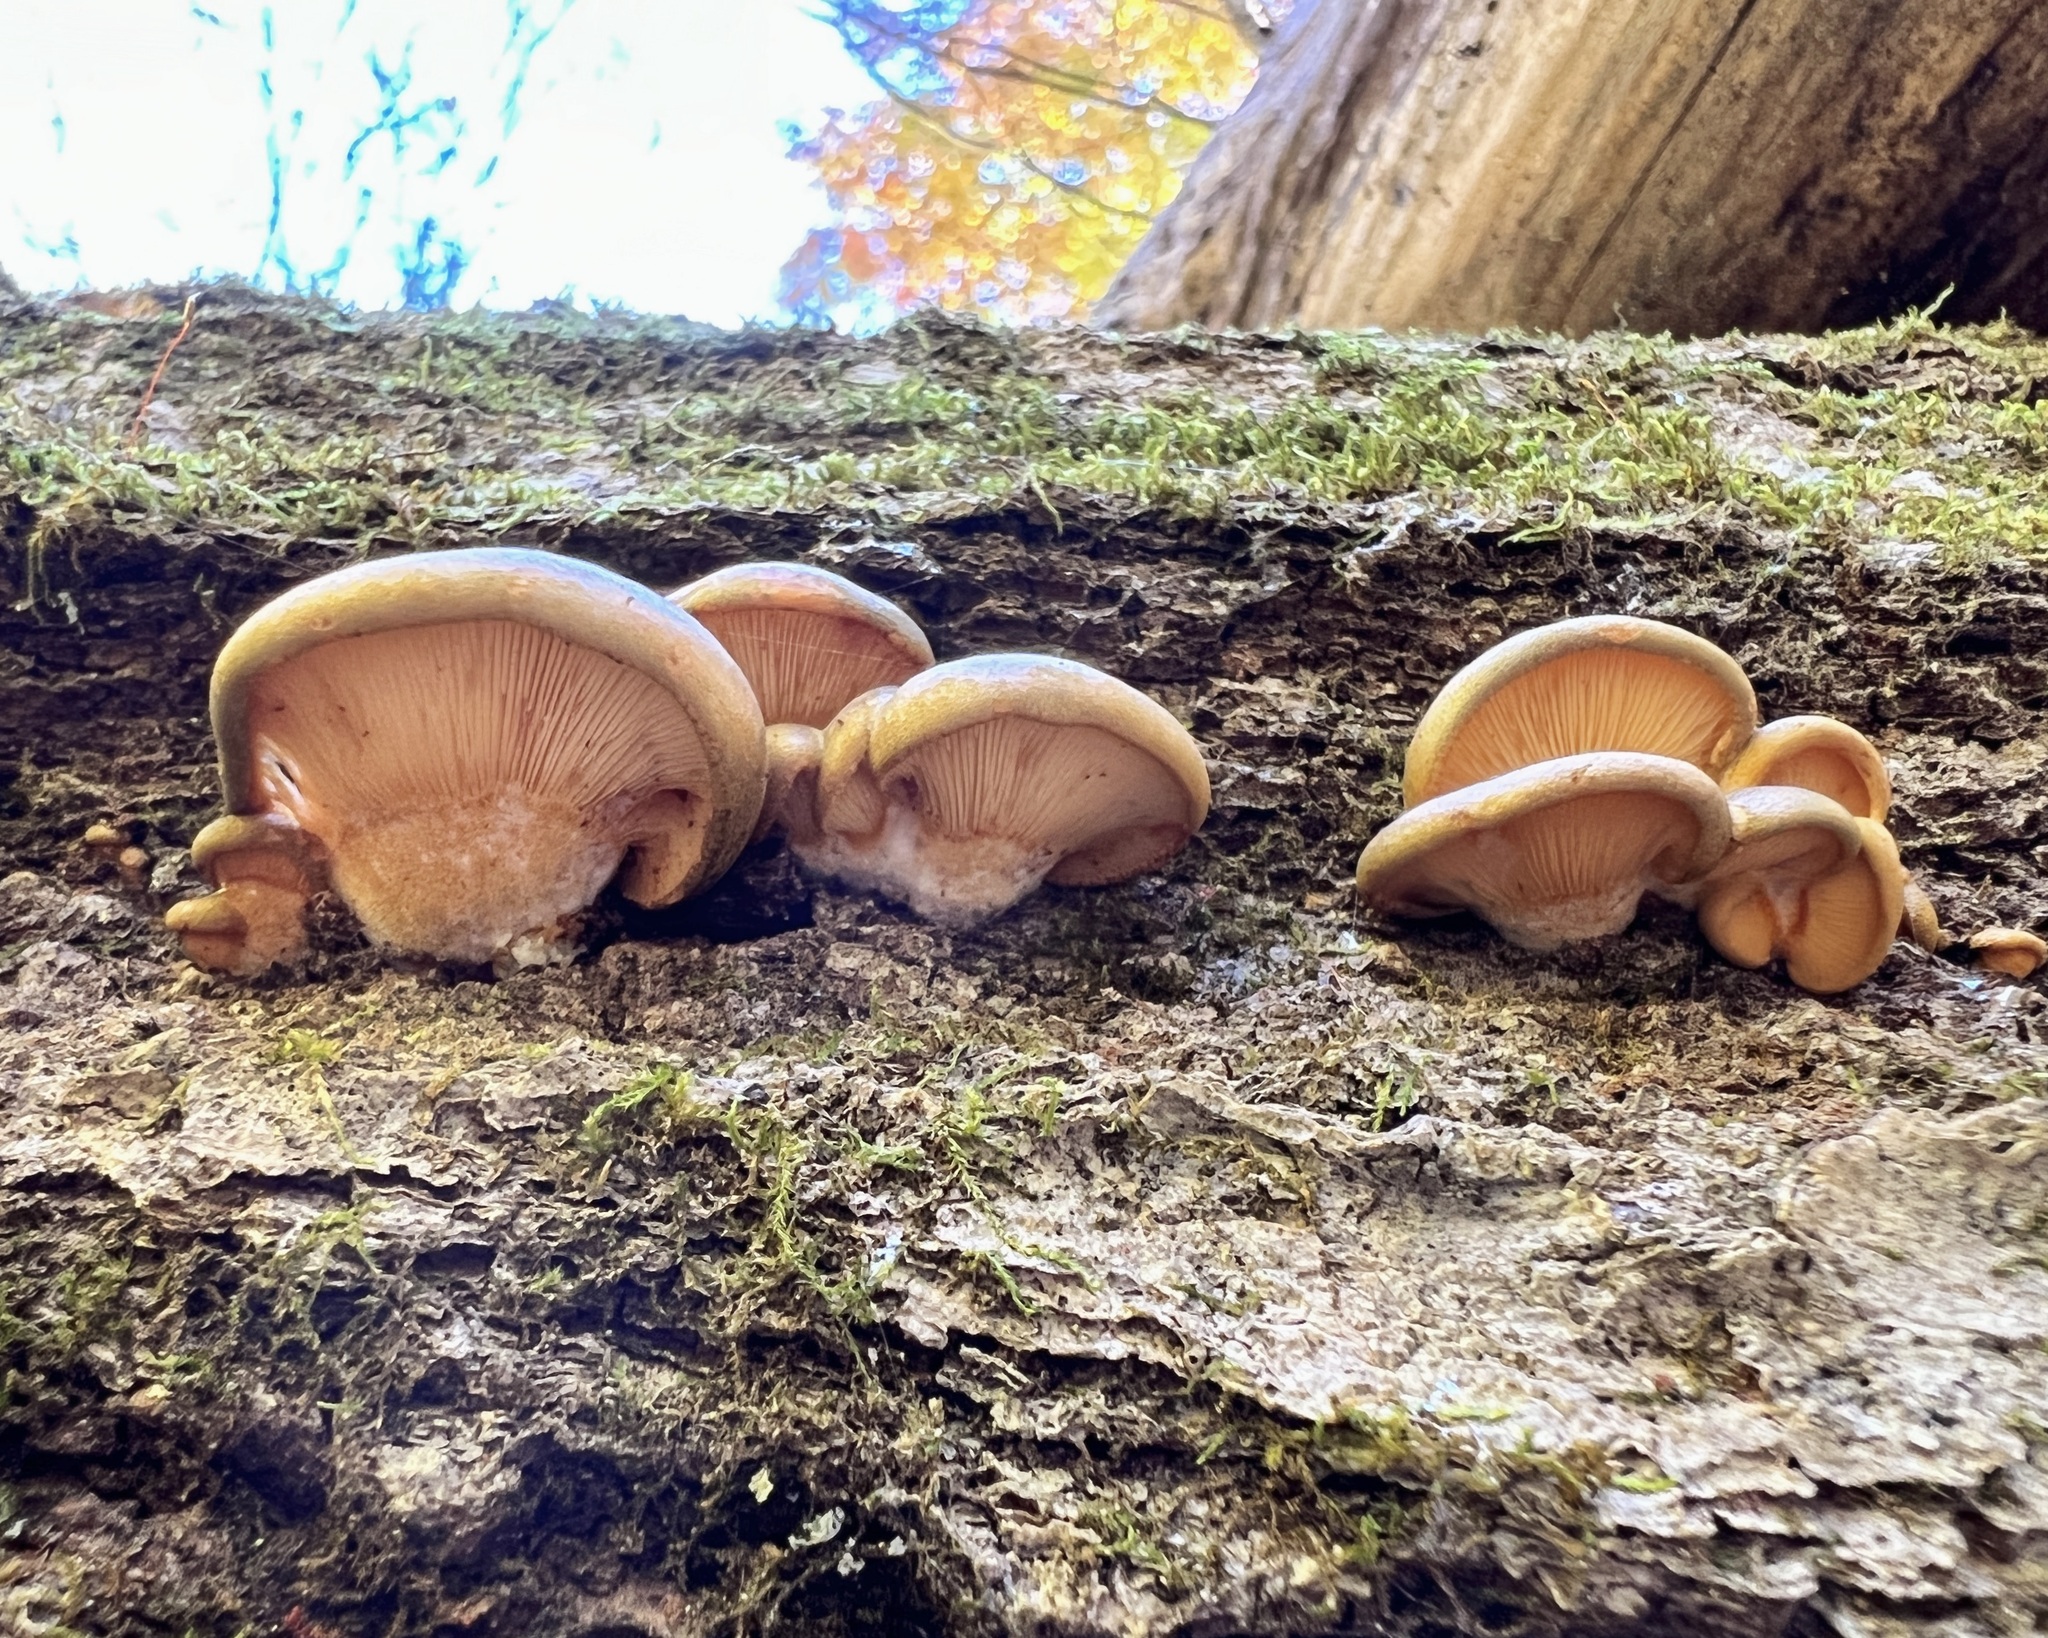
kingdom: Fungi
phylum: Basidiomycota
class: Agaricomycetes
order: Agaricales
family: Sarcomyxaceae
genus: Sarcomyxa
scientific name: Sarcomyxa serotina
